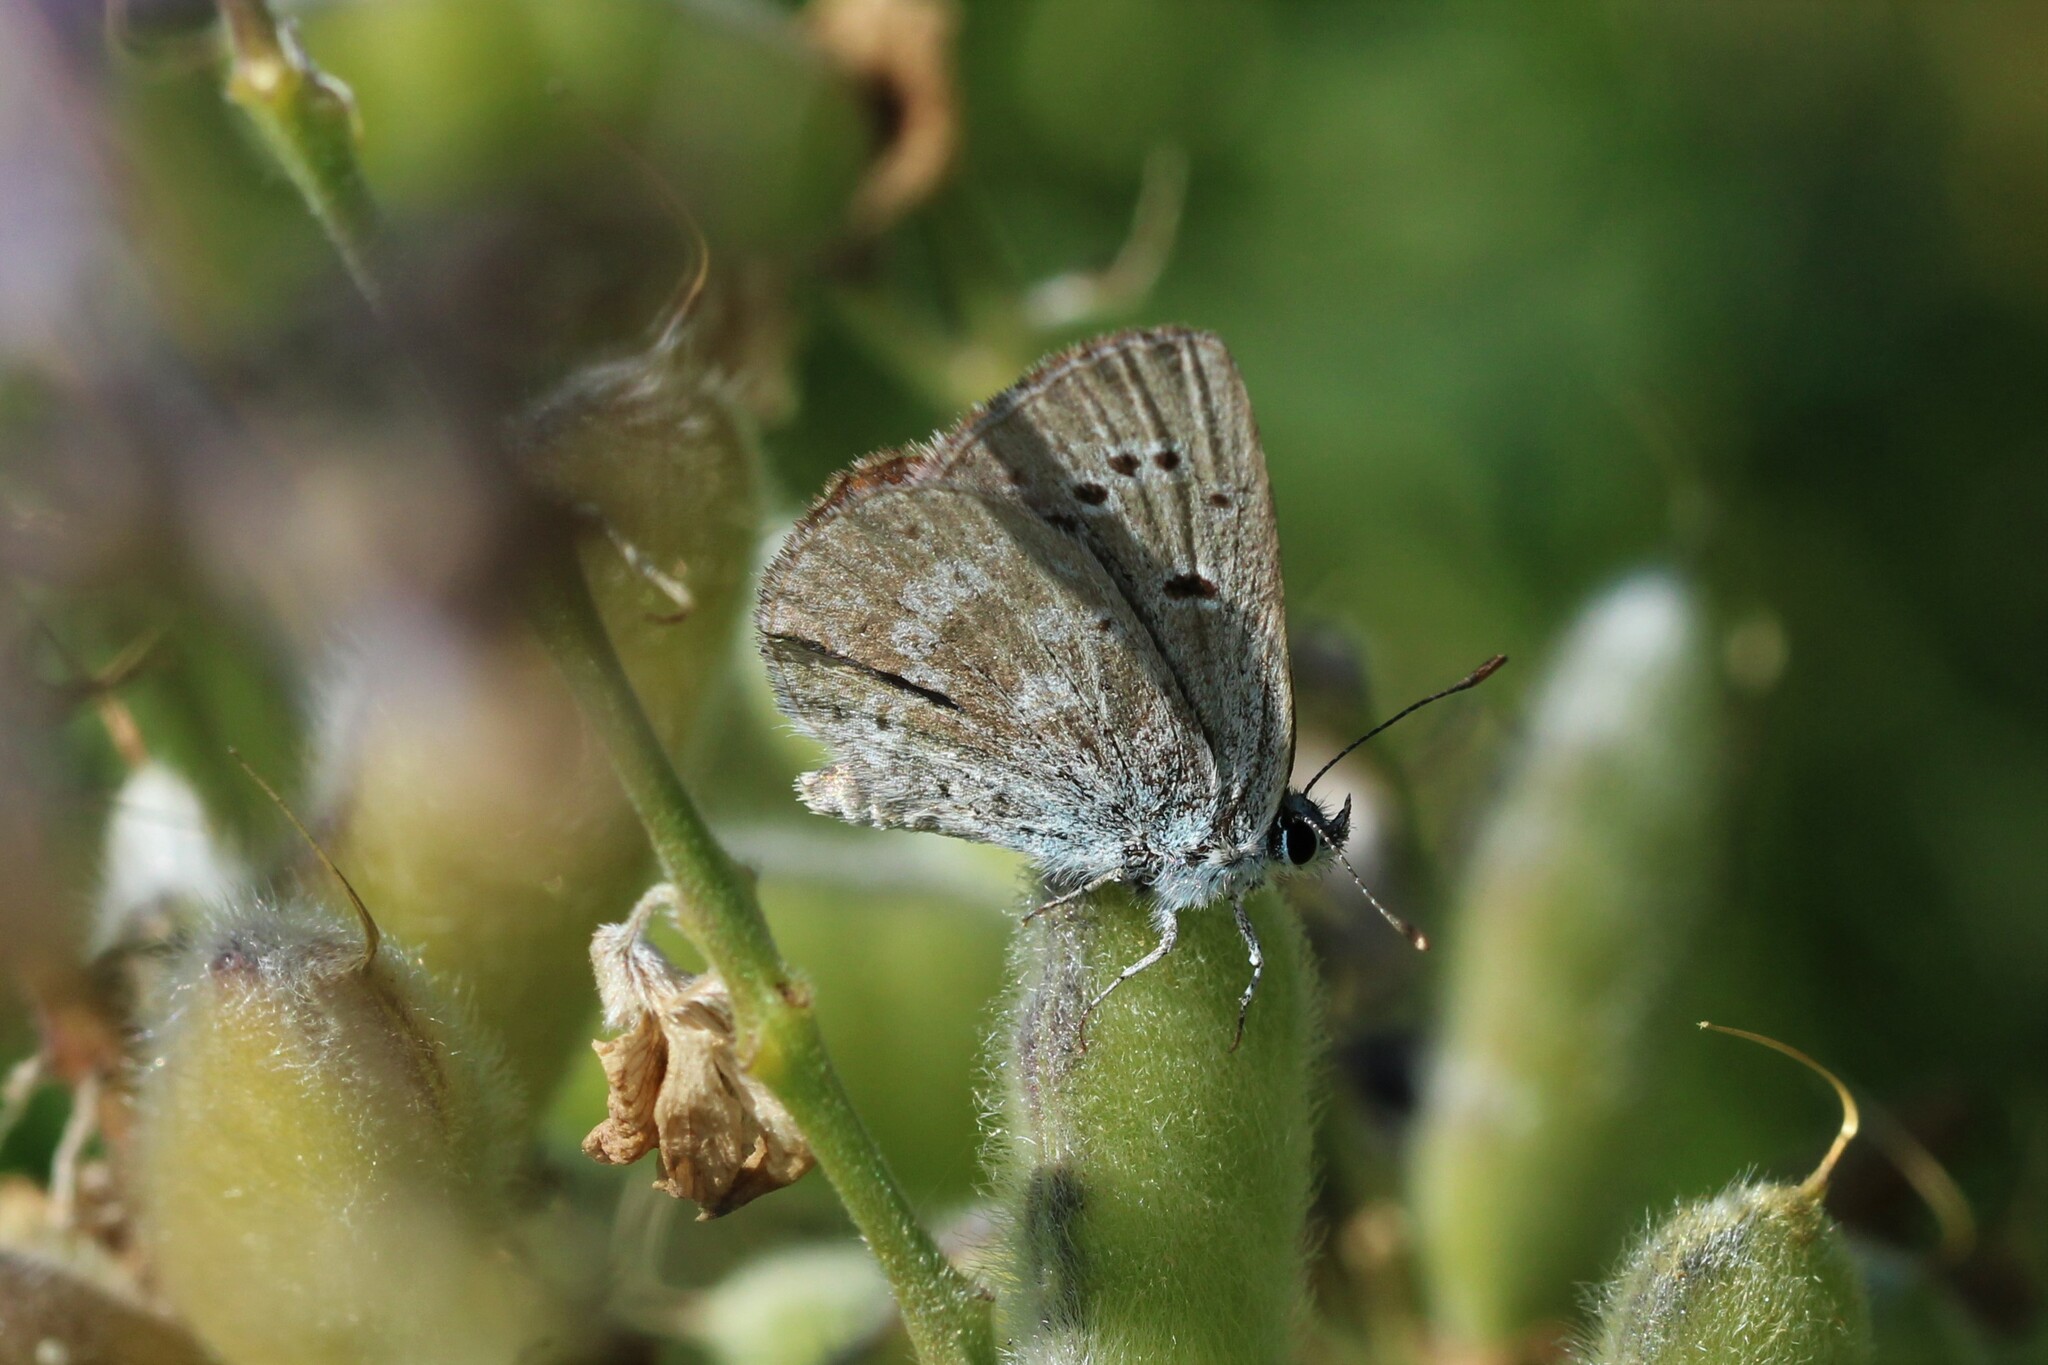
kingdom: Animalia
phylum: Arthropoda
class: Insecta
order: Lepidoptera
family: Lycaenidae
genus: Icaricia
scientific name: Icaricia icarioides
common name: Boisduval's blue
